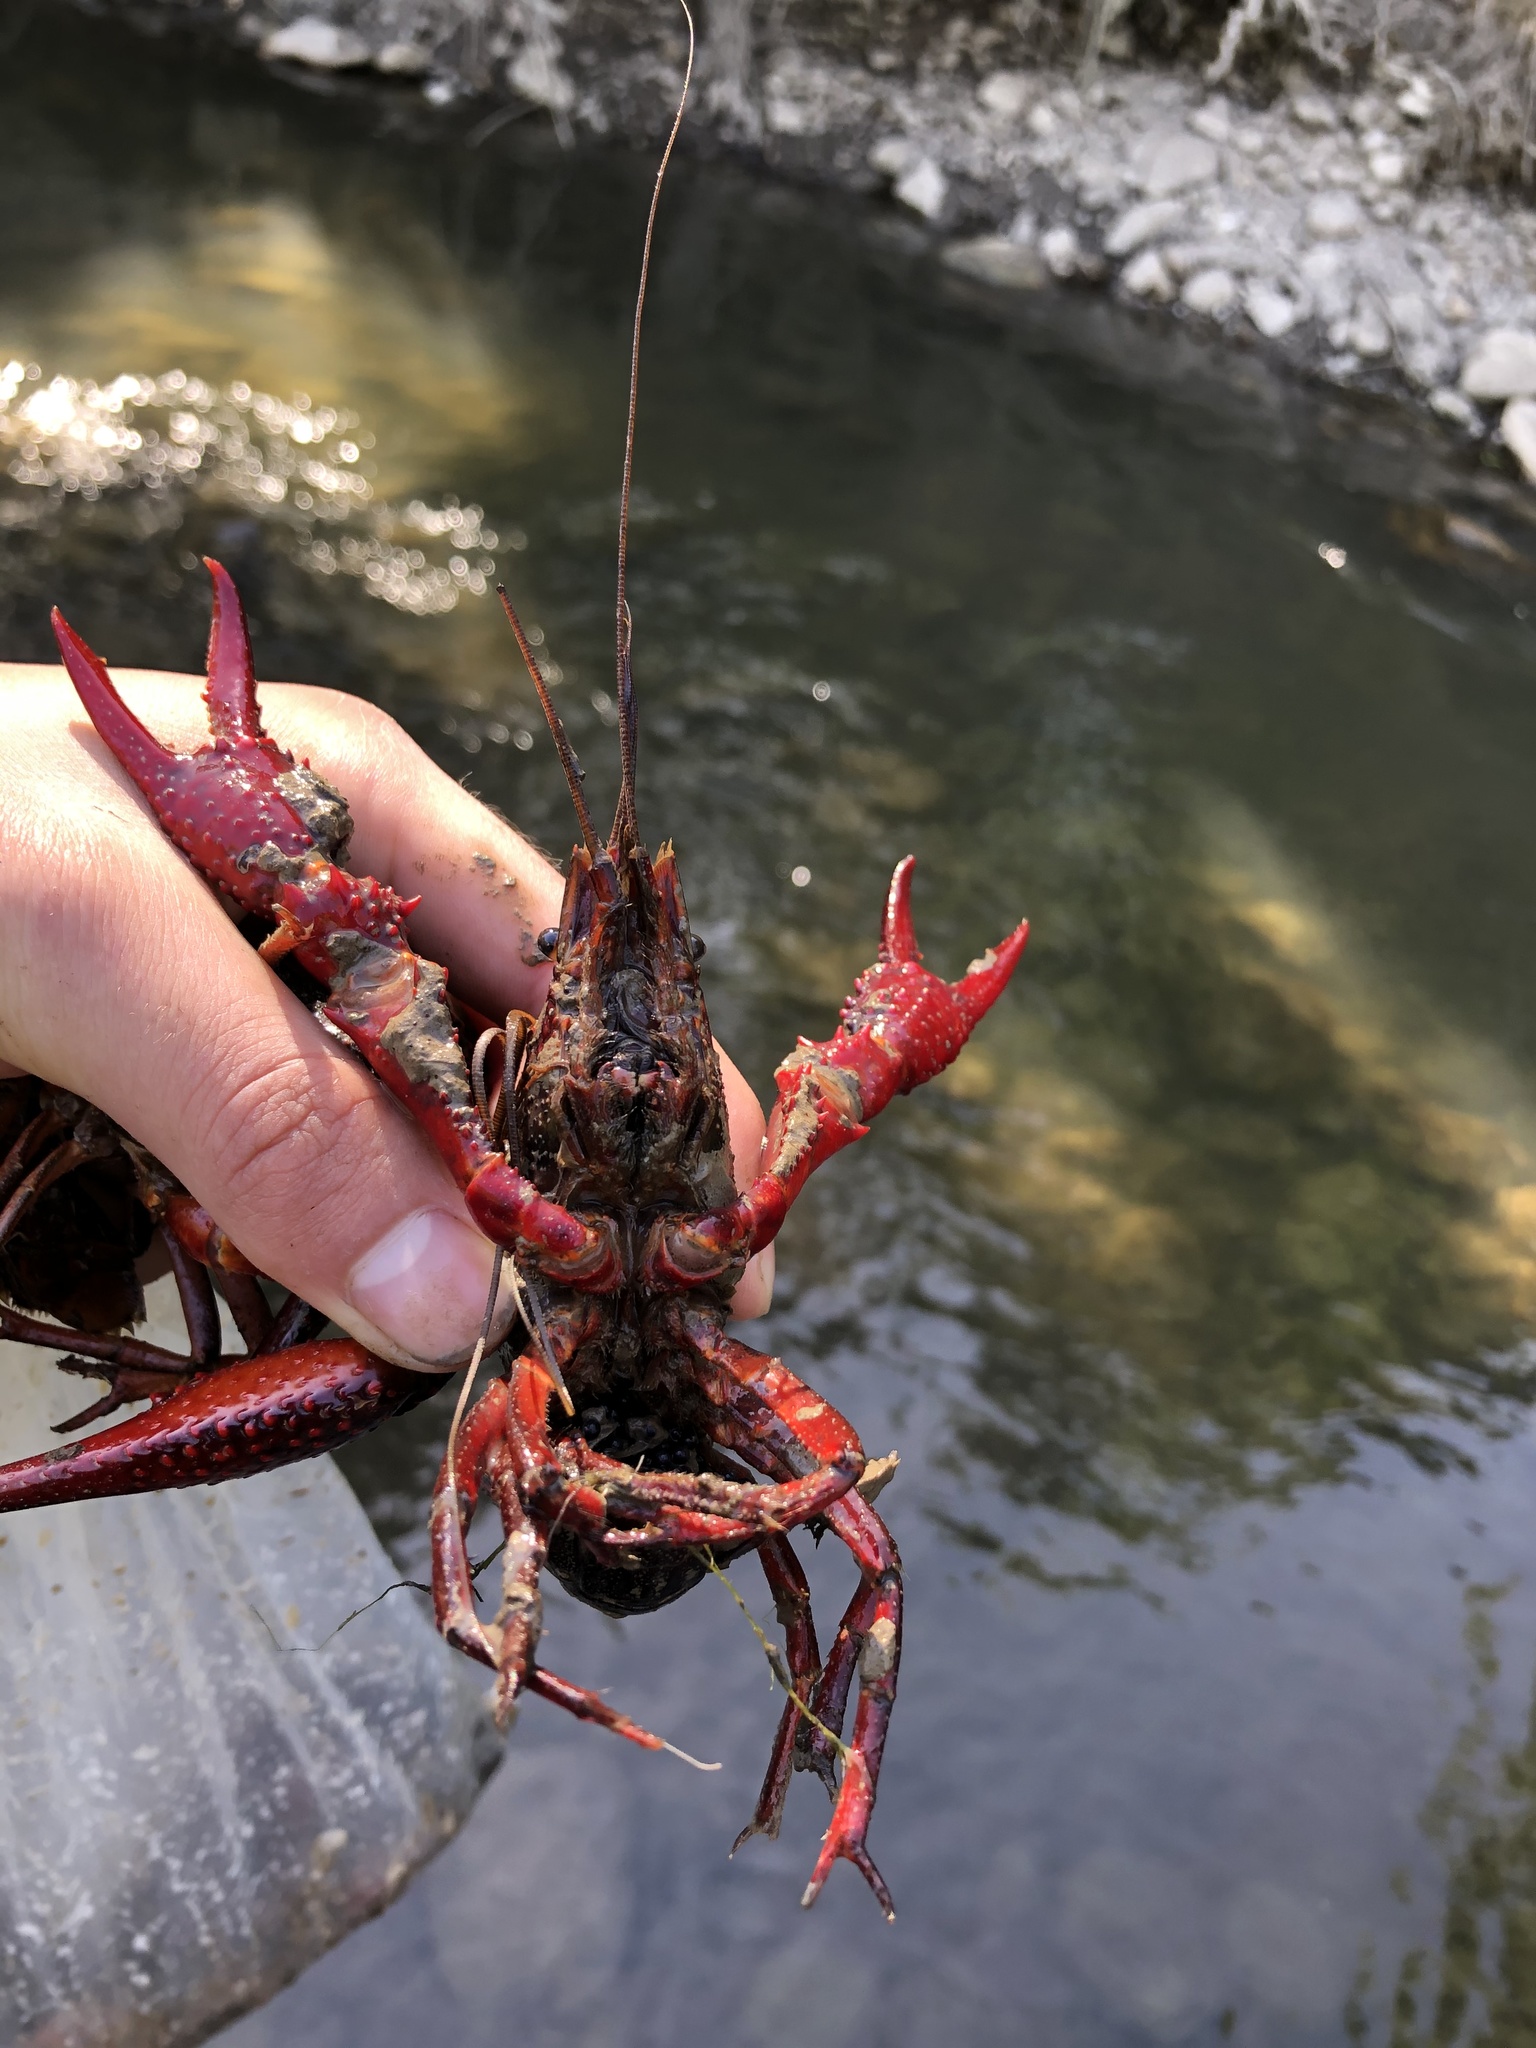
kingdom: Animalia
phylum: Arthropoda
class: Malacostraca
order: Decapoda
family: Cambaridae
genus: Procambarus
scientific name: Procambarus clarkii
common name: Red swamp crayfish
